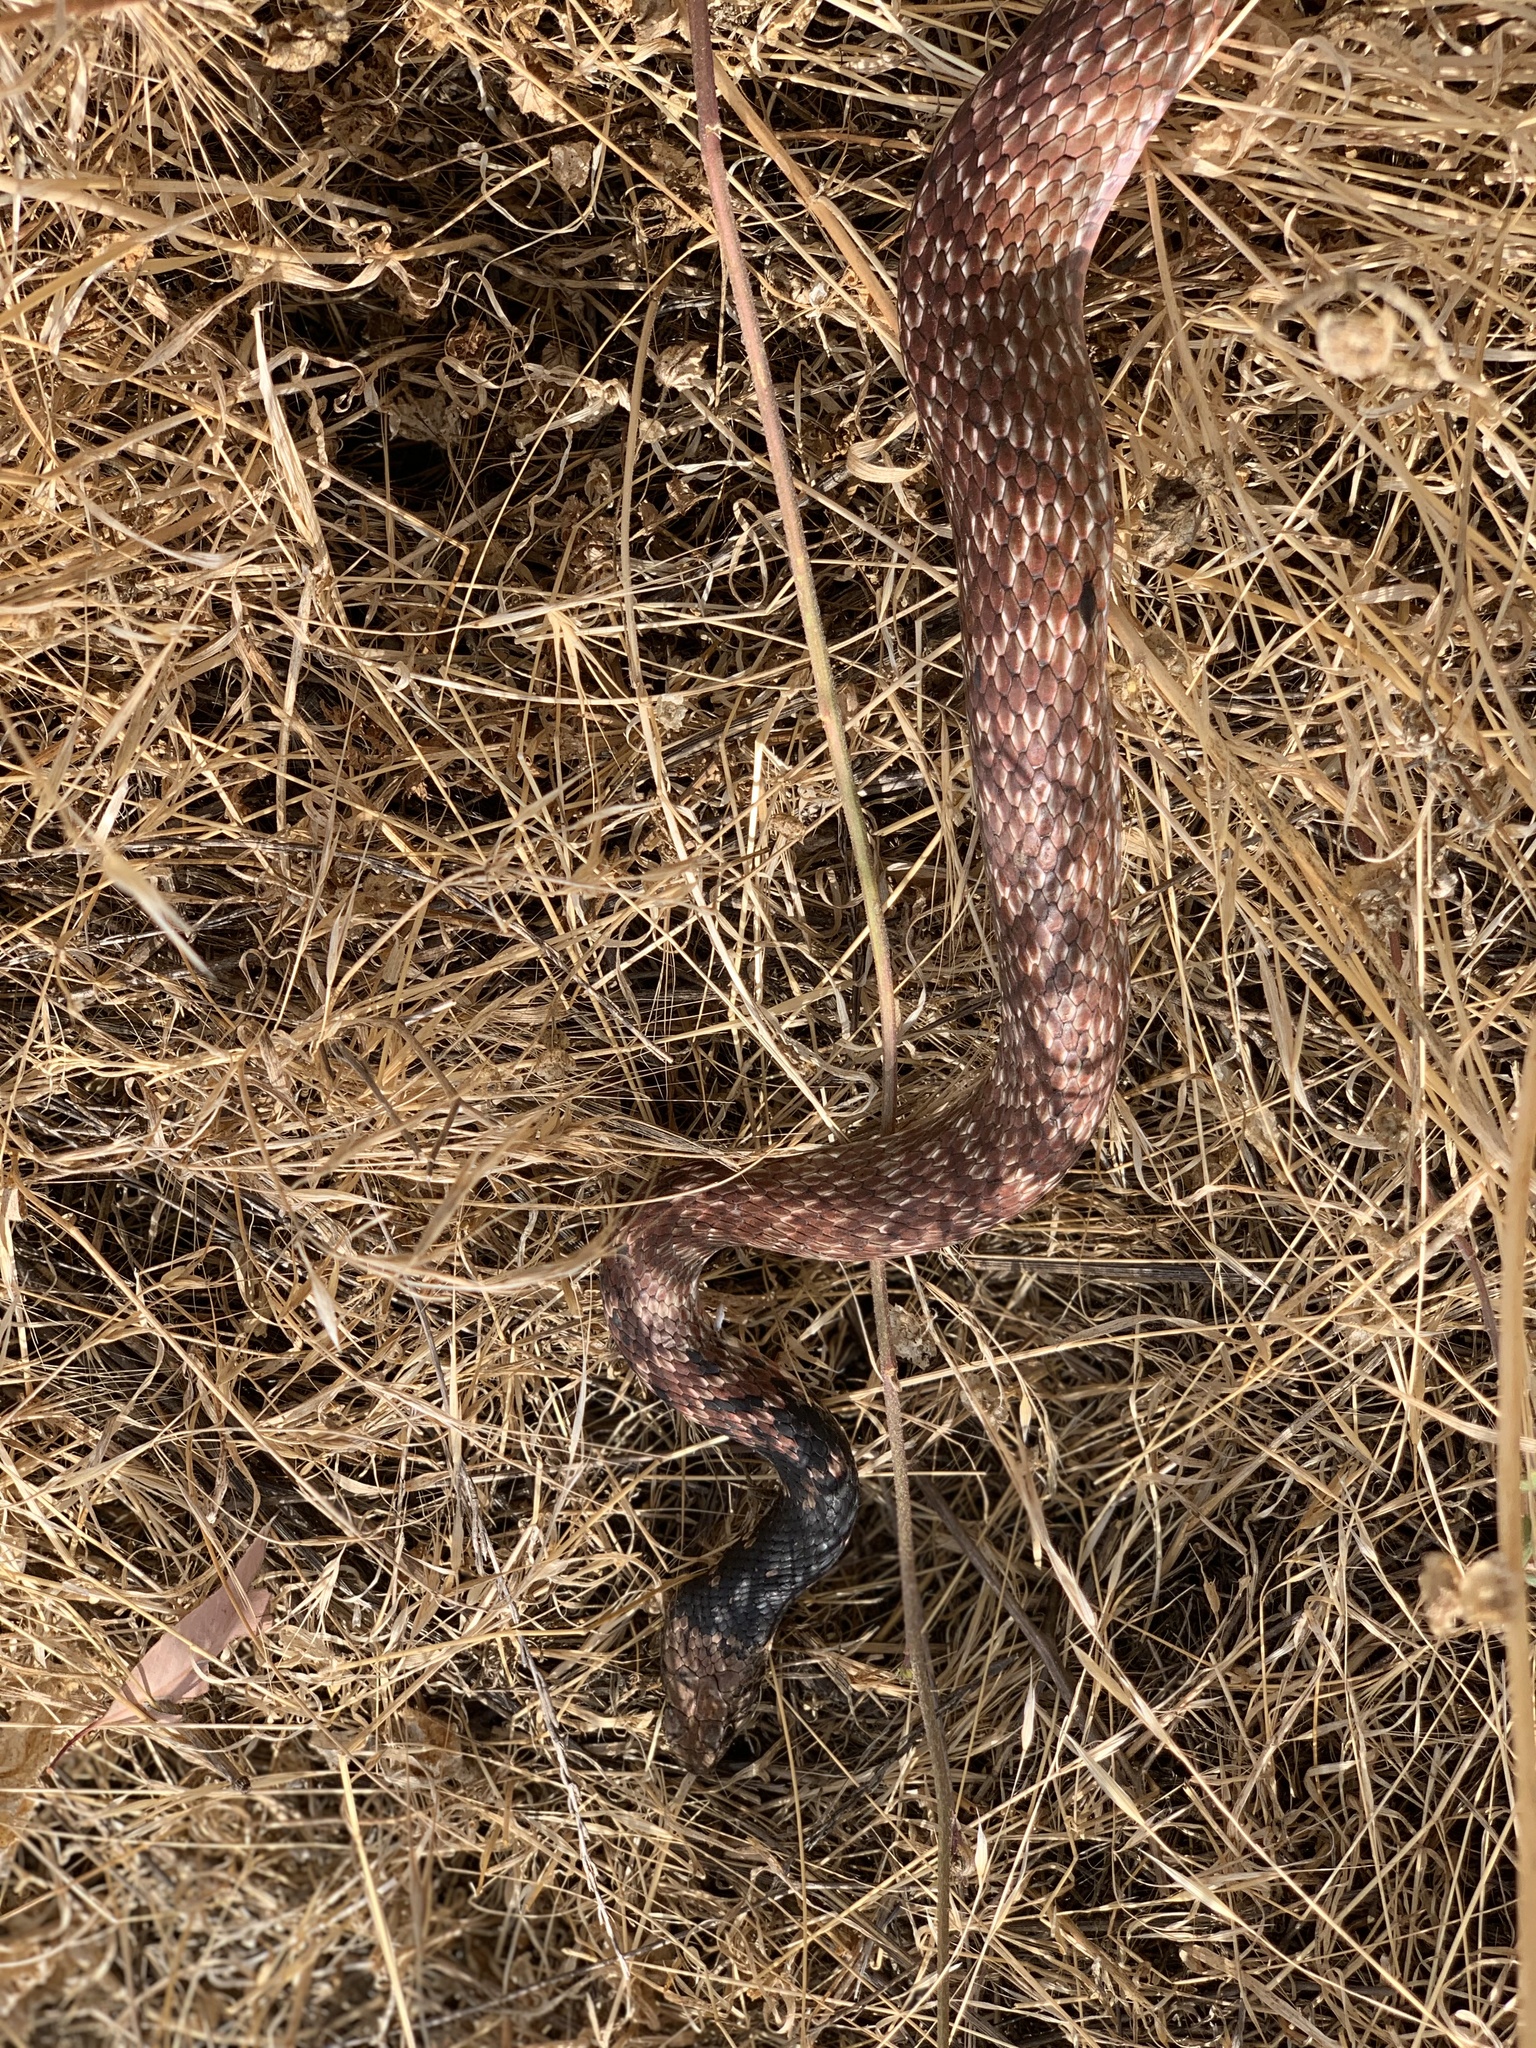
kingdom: Animalia
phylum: Chordata
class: Squamata
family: Colubridae
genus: Masticophis
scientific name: Masticophis flagellum
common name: Coachwhip
